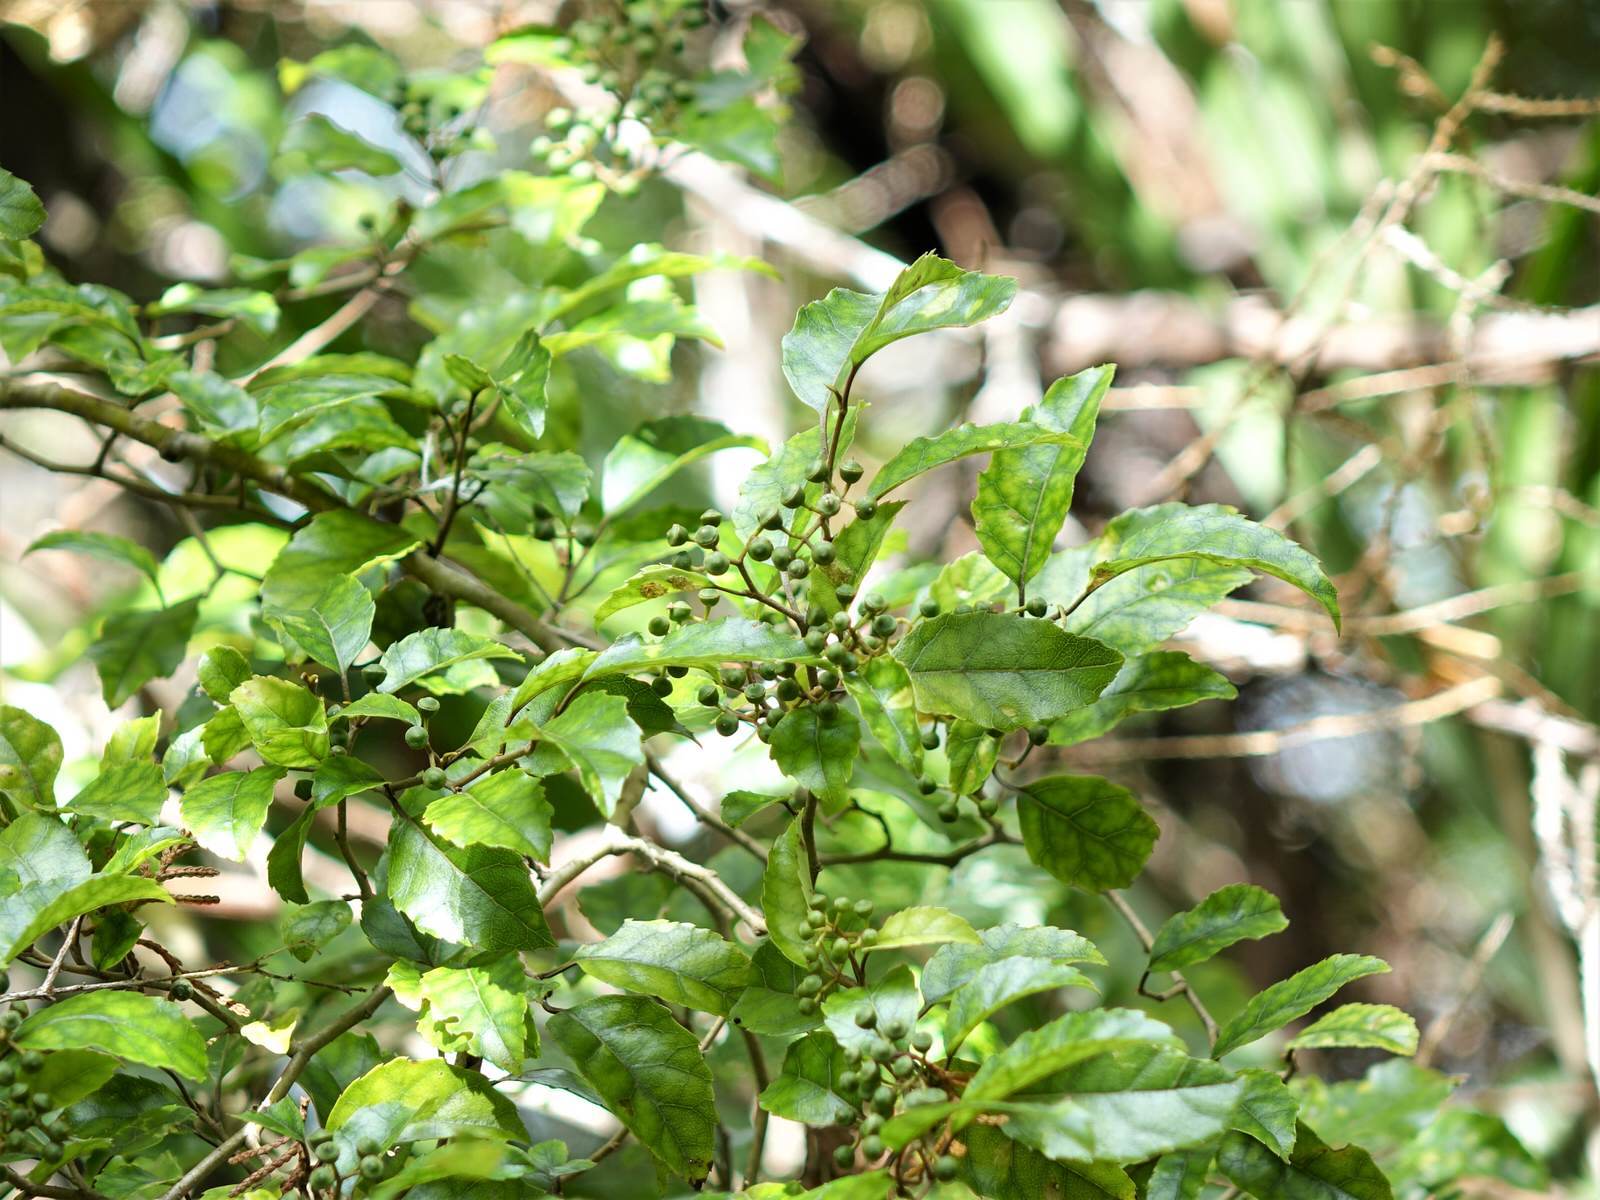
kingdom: Plantae
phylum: Tracheophyta
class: Magnoliopsida
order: Asterales
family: Rousseaceae
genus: Carpodetus
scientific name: Carpodetus serratus
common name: White mapau
